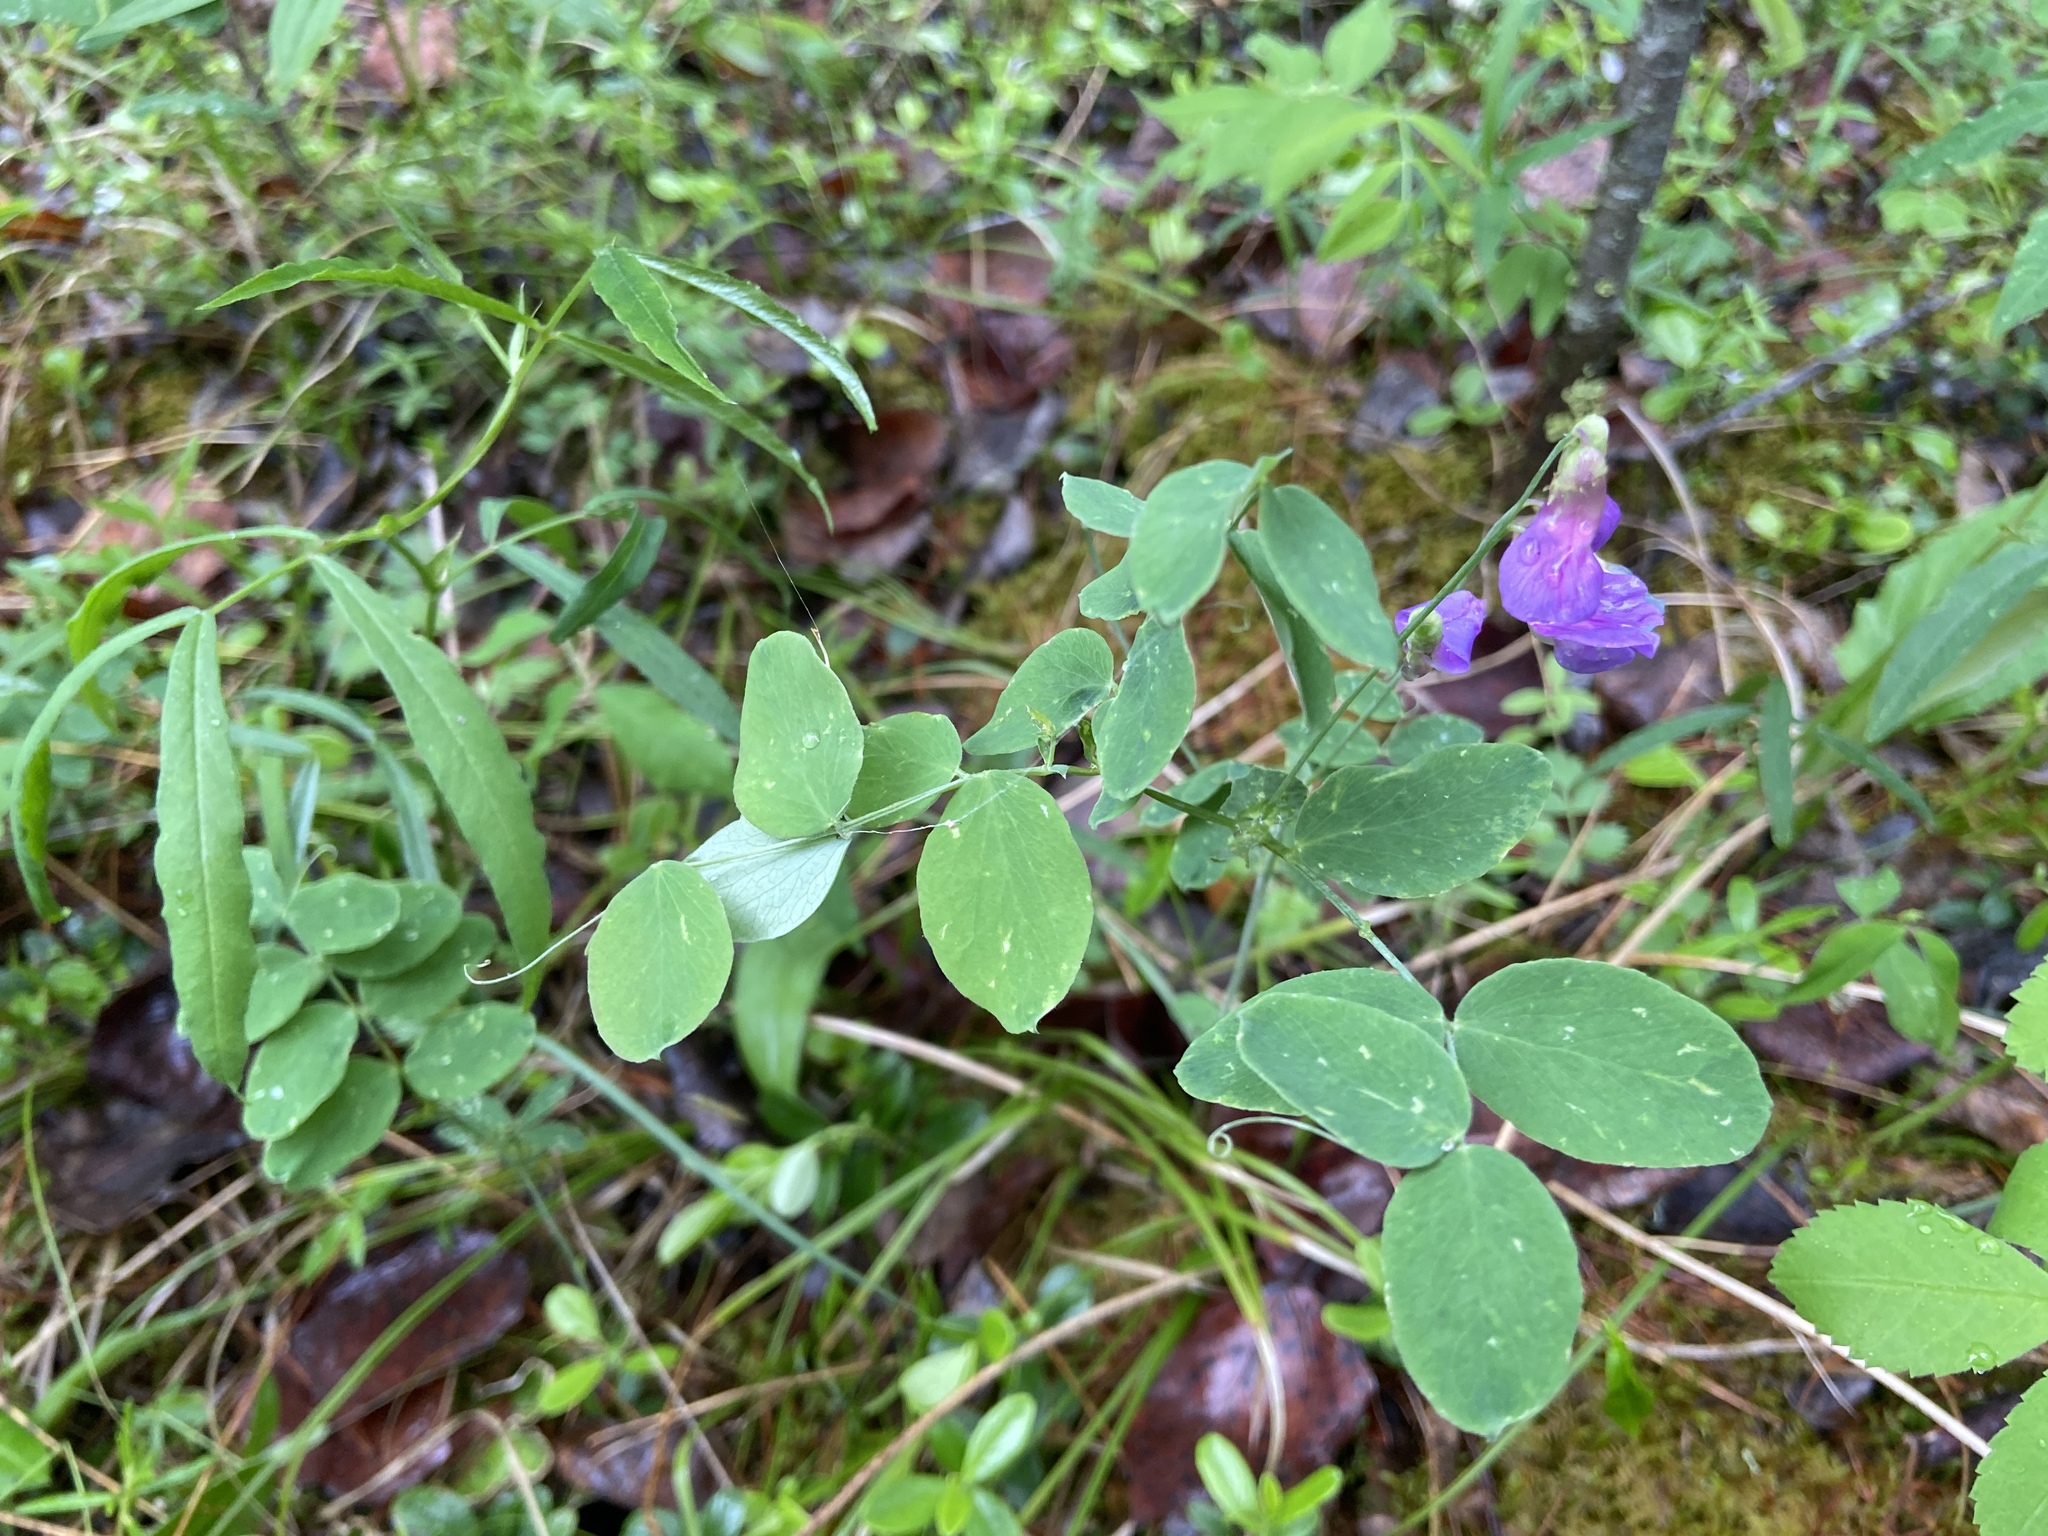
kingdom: Plantae
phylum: Tracheophyta
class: Magnoliopsida
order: Fabales
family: Fabaceae
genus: Lathyrus
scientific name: Lathyrus humilis
